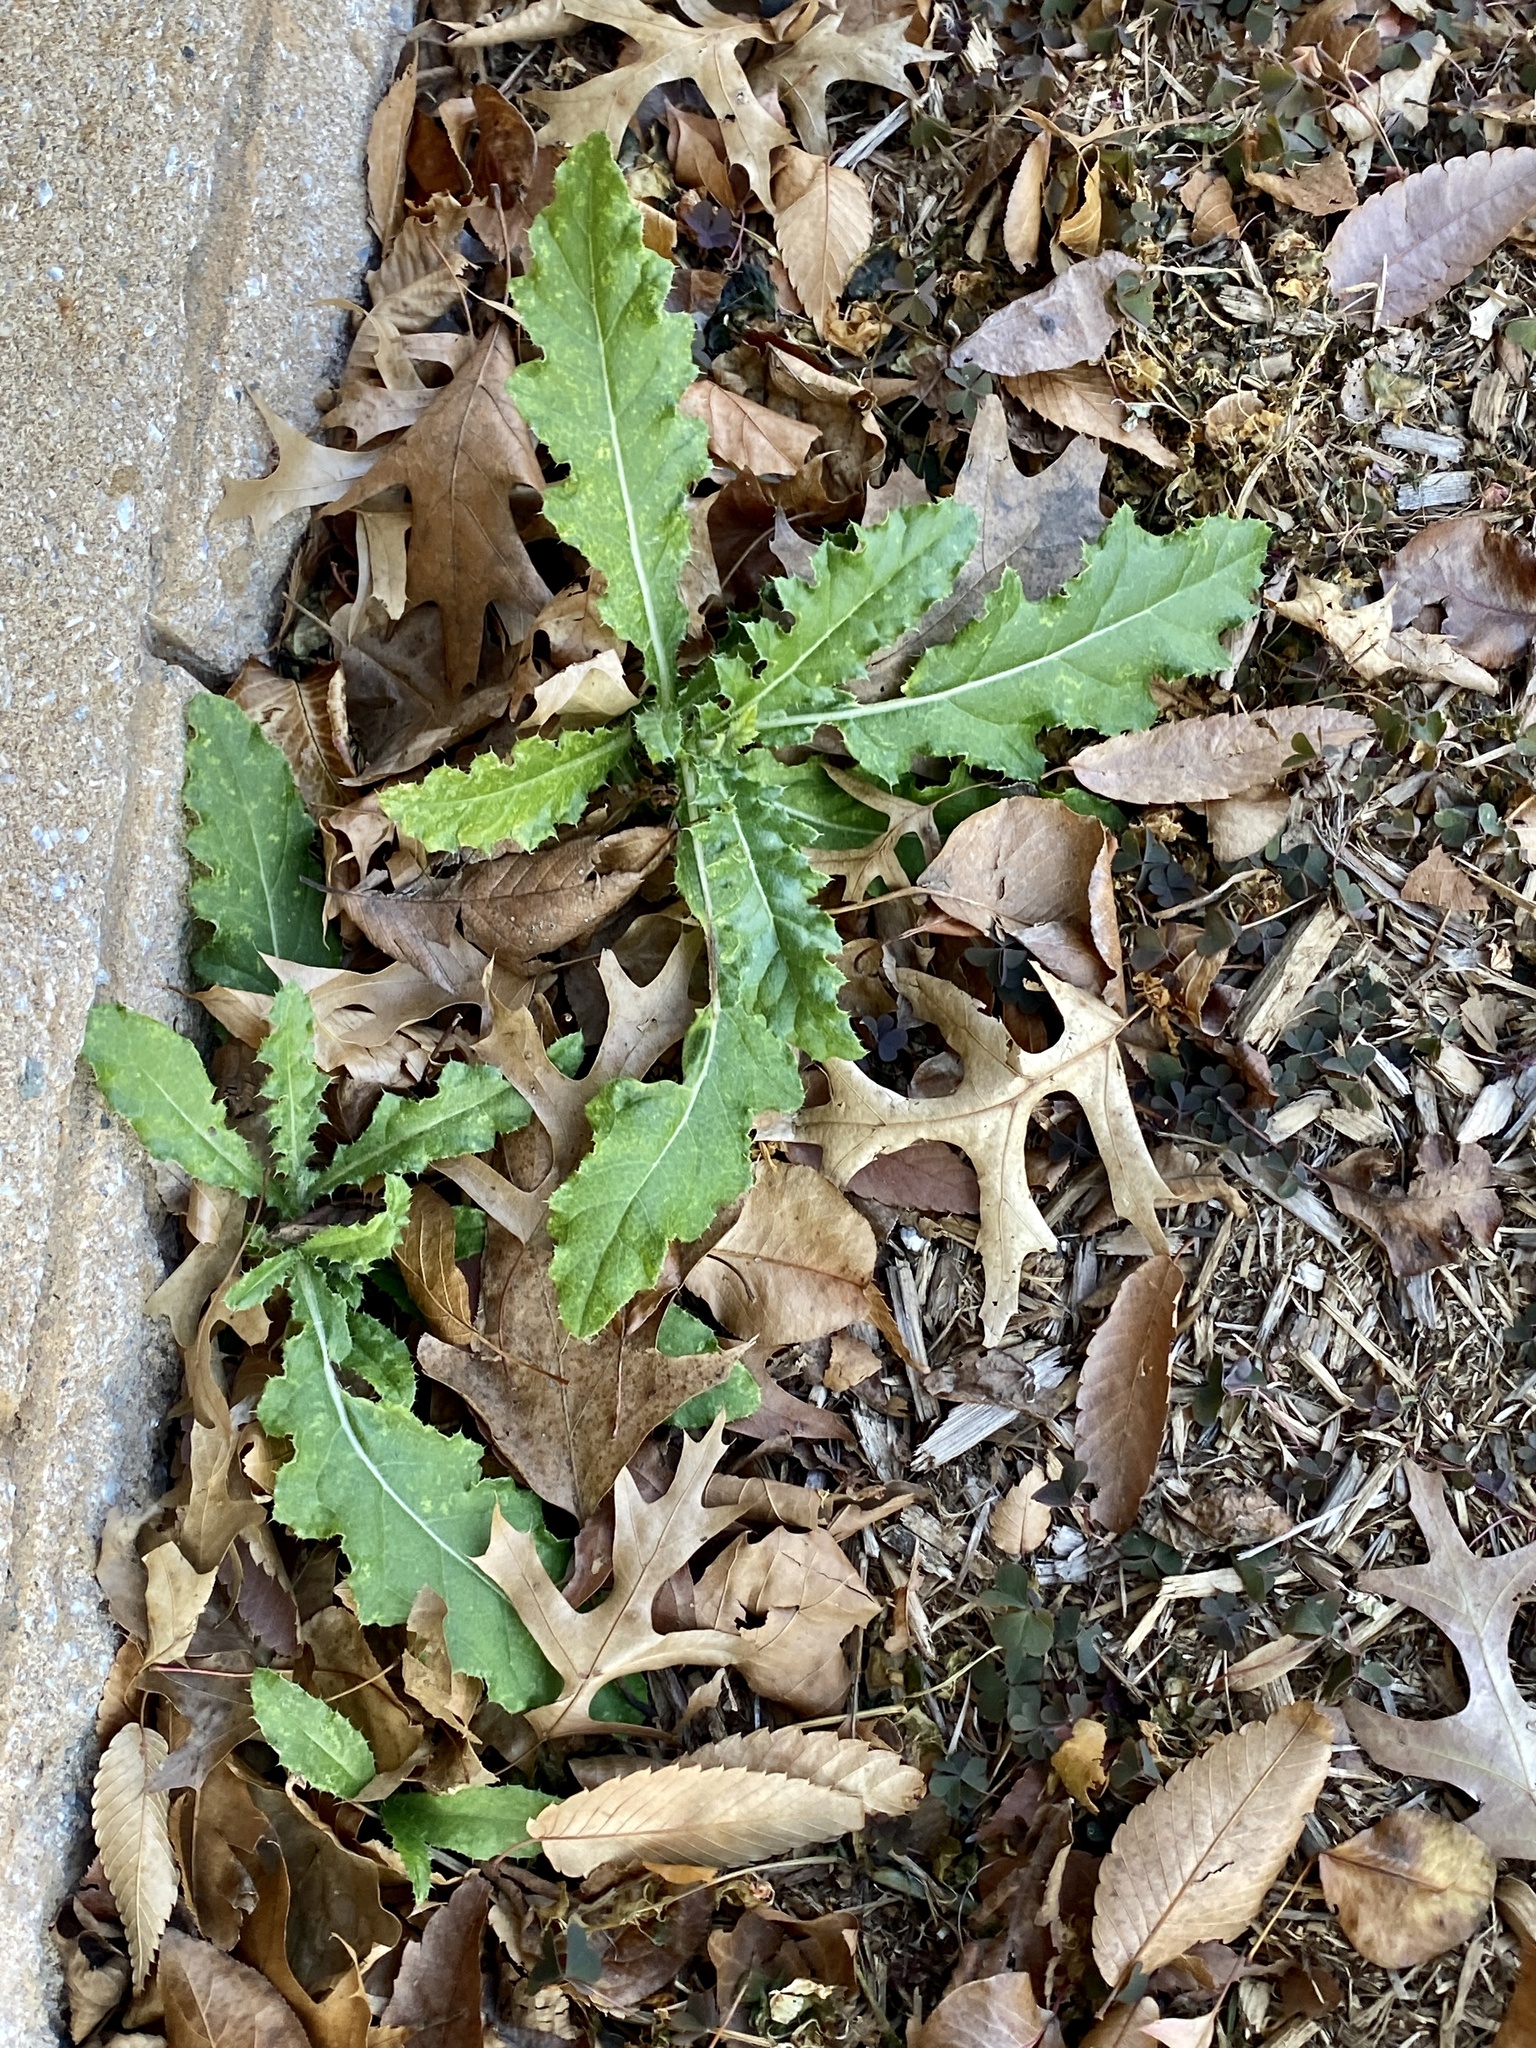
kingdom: Plantae
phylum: Tracheophyta
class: Magnoliopsida
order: Asterales
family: Asteraceae
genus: Cirsium
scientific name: Cirsium arvense
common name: Creeping thistle
